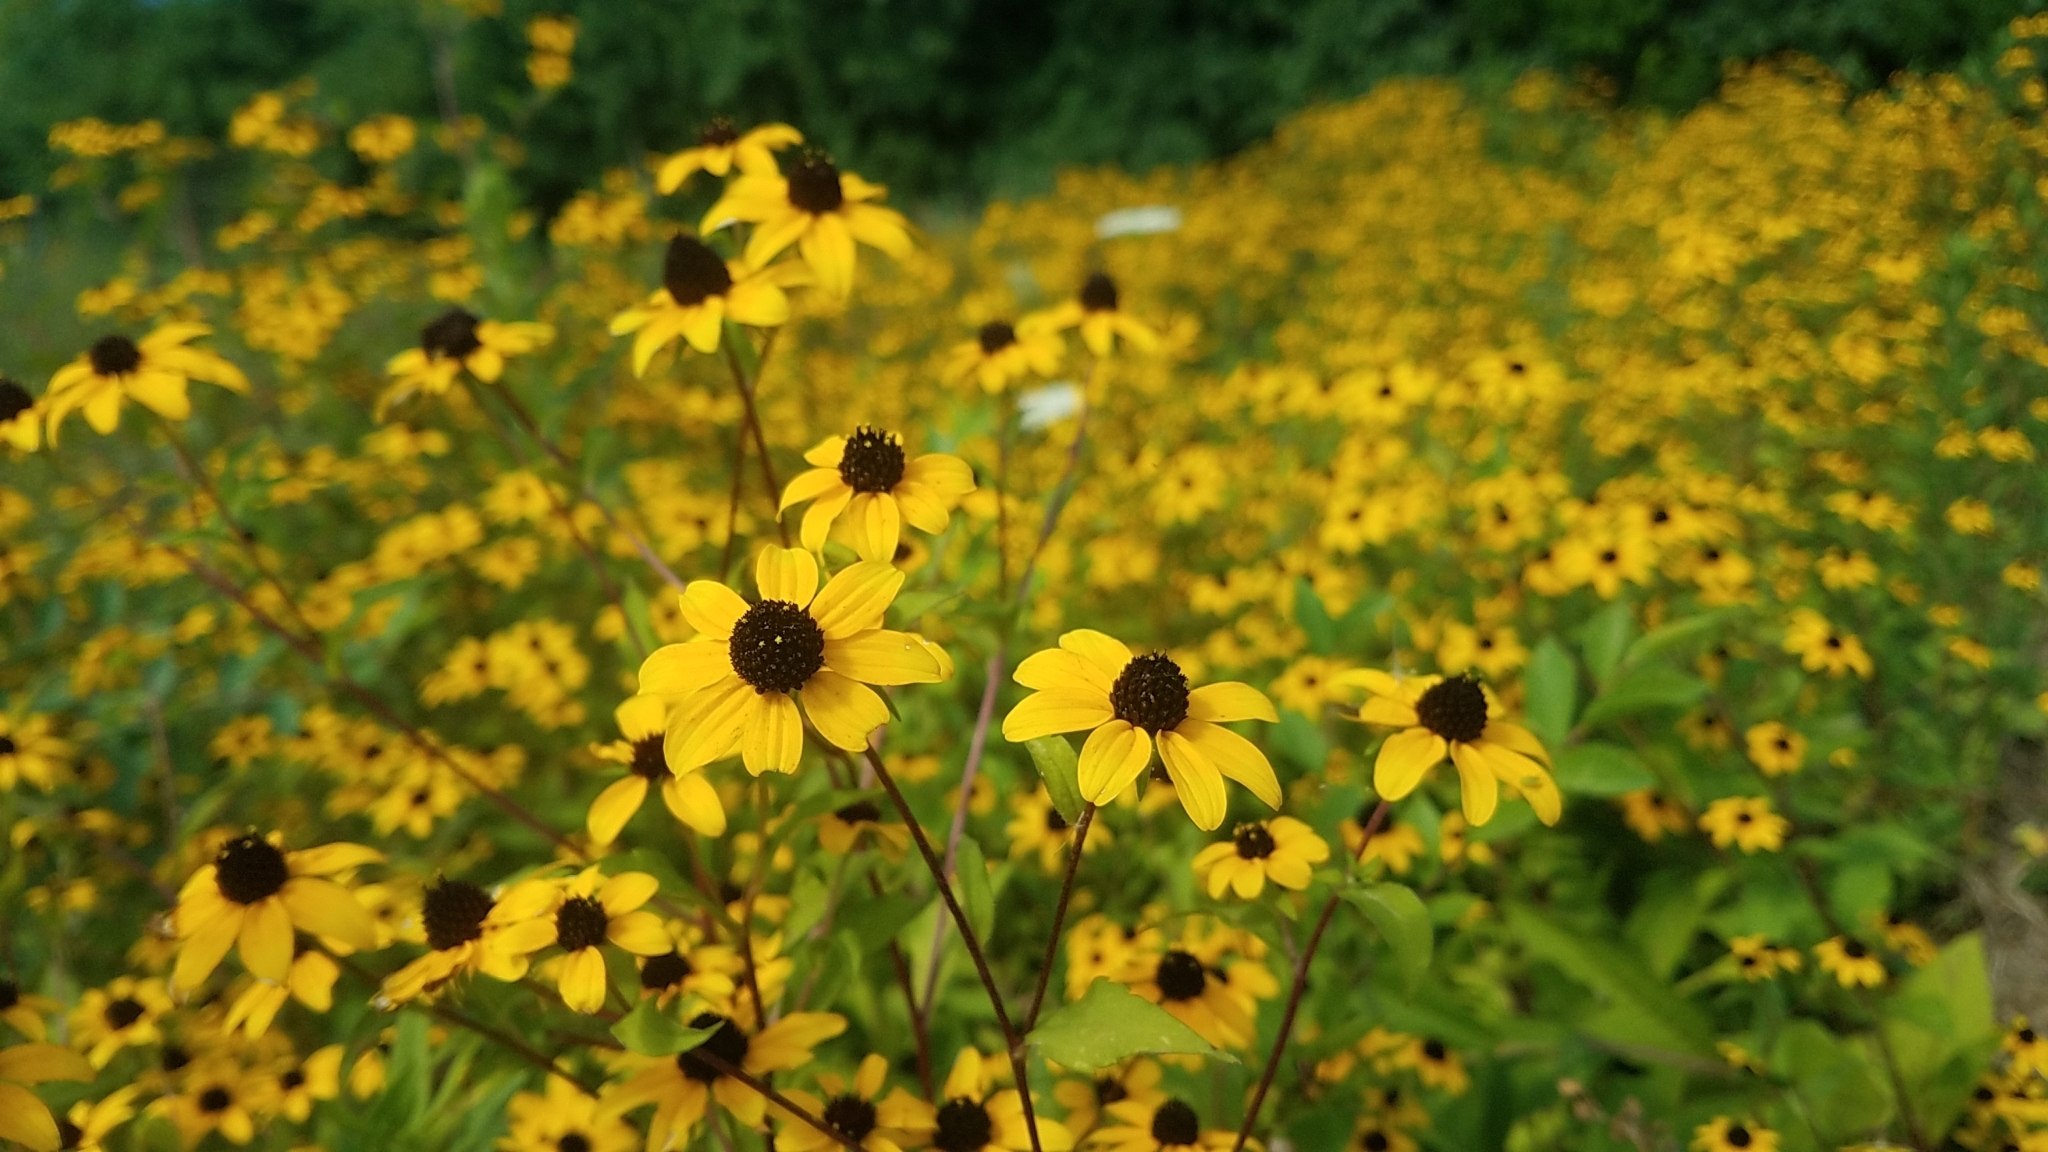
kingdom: Plantae
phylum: Tracheophyta
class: Magnoliopsida
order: Asterales
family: Asteraceae
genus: Rudbeckia
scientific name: Rudbeckia triloba
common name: Thin-leaved coneflower
